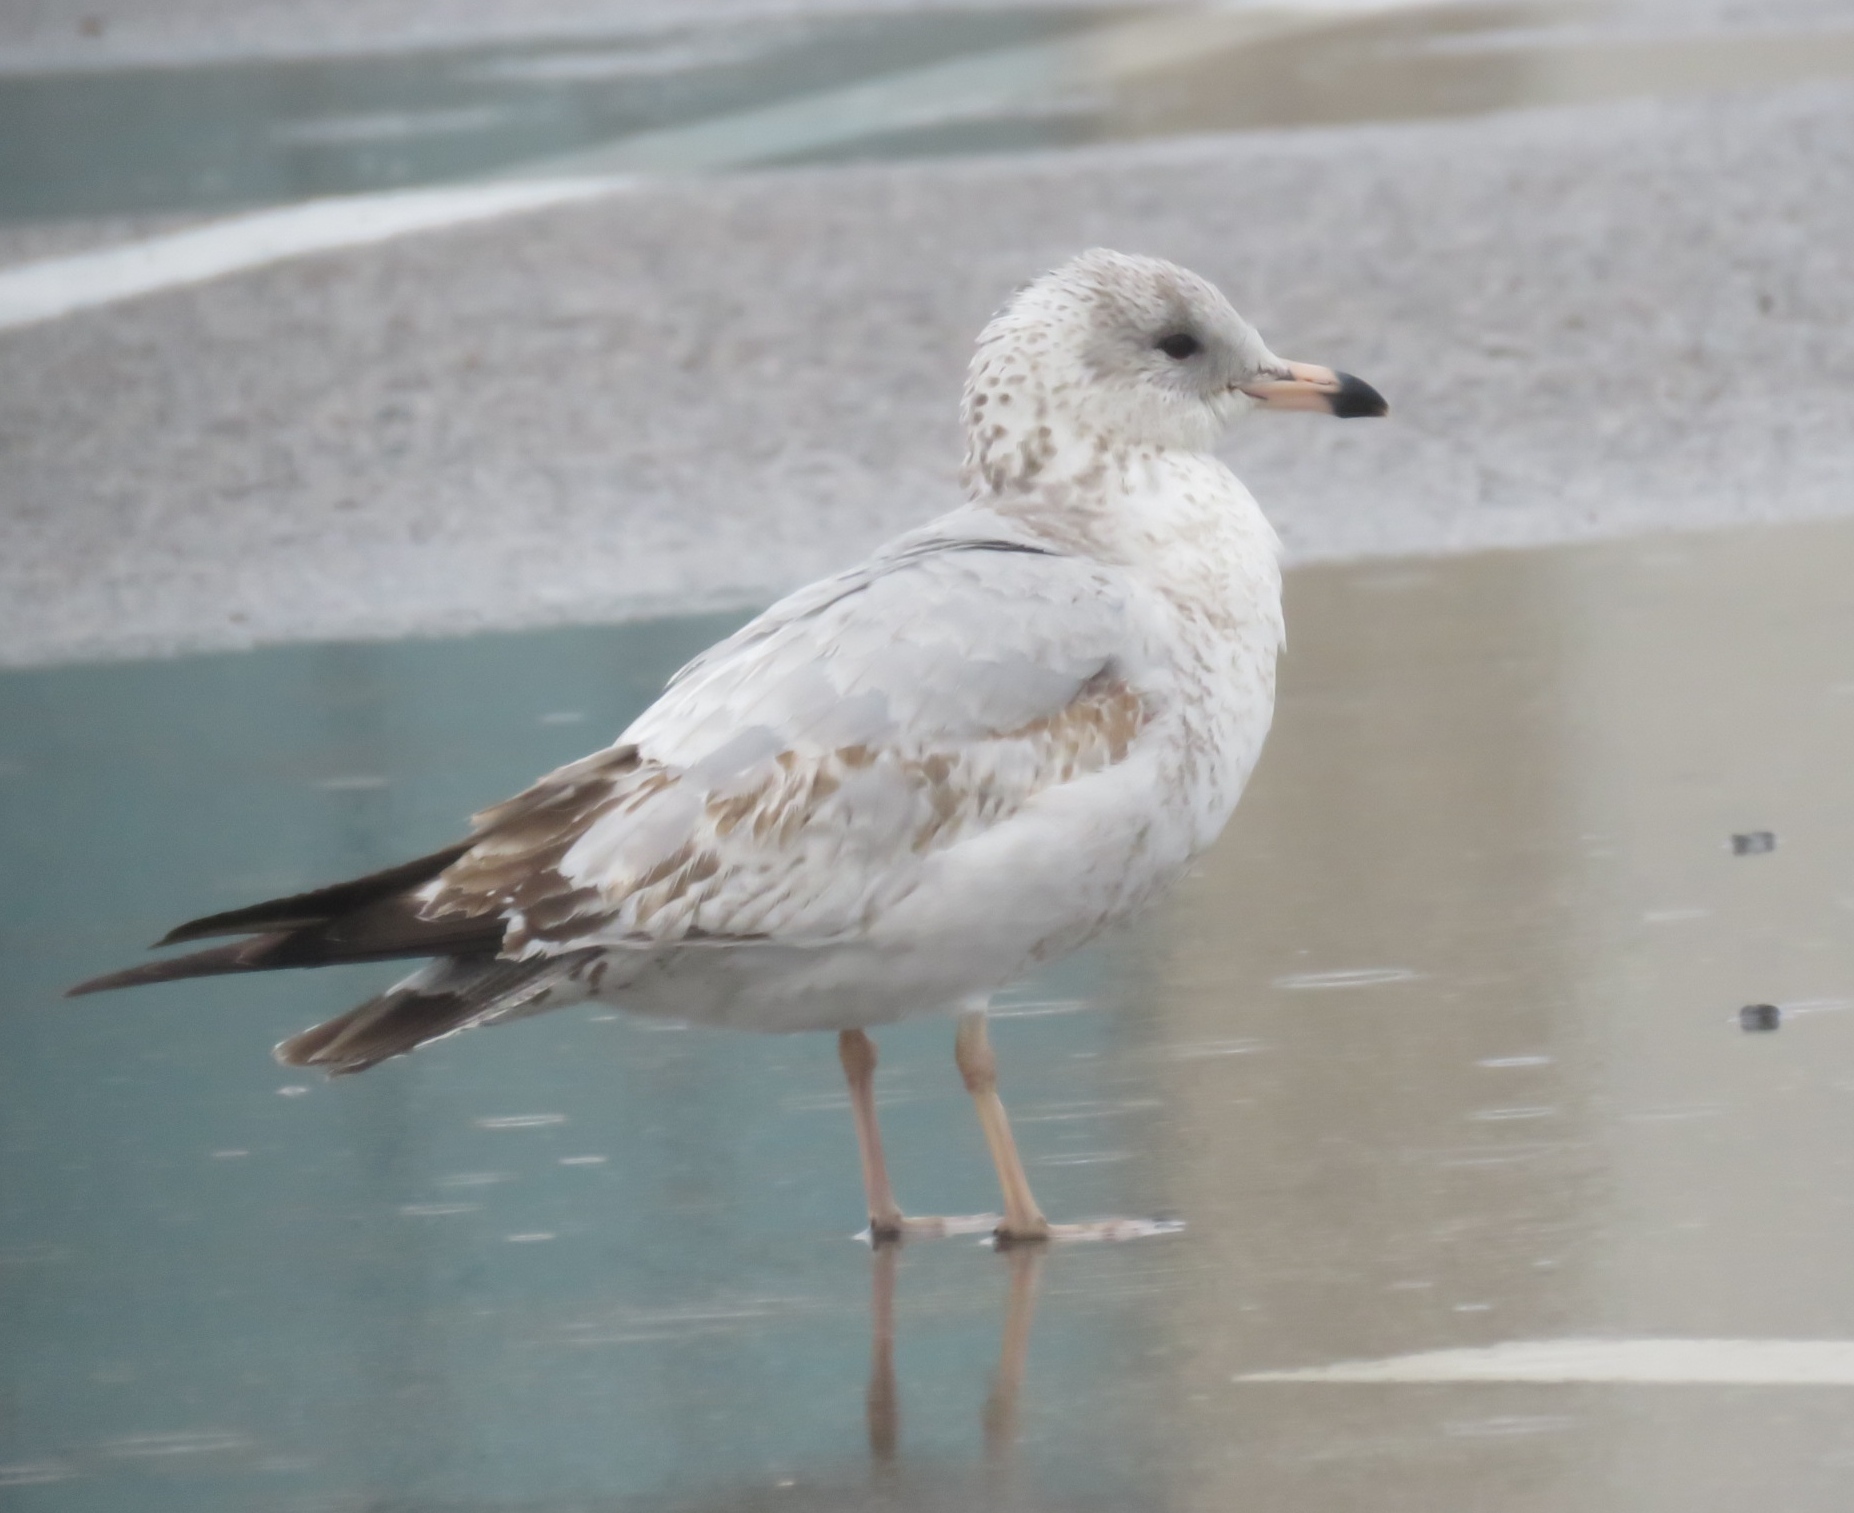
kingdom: Animalia
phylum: Chordata
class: Aves
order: Charadriiformes
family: Laridae
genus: Larus
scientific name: Larus delawarensis
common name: Ring-billed gull
